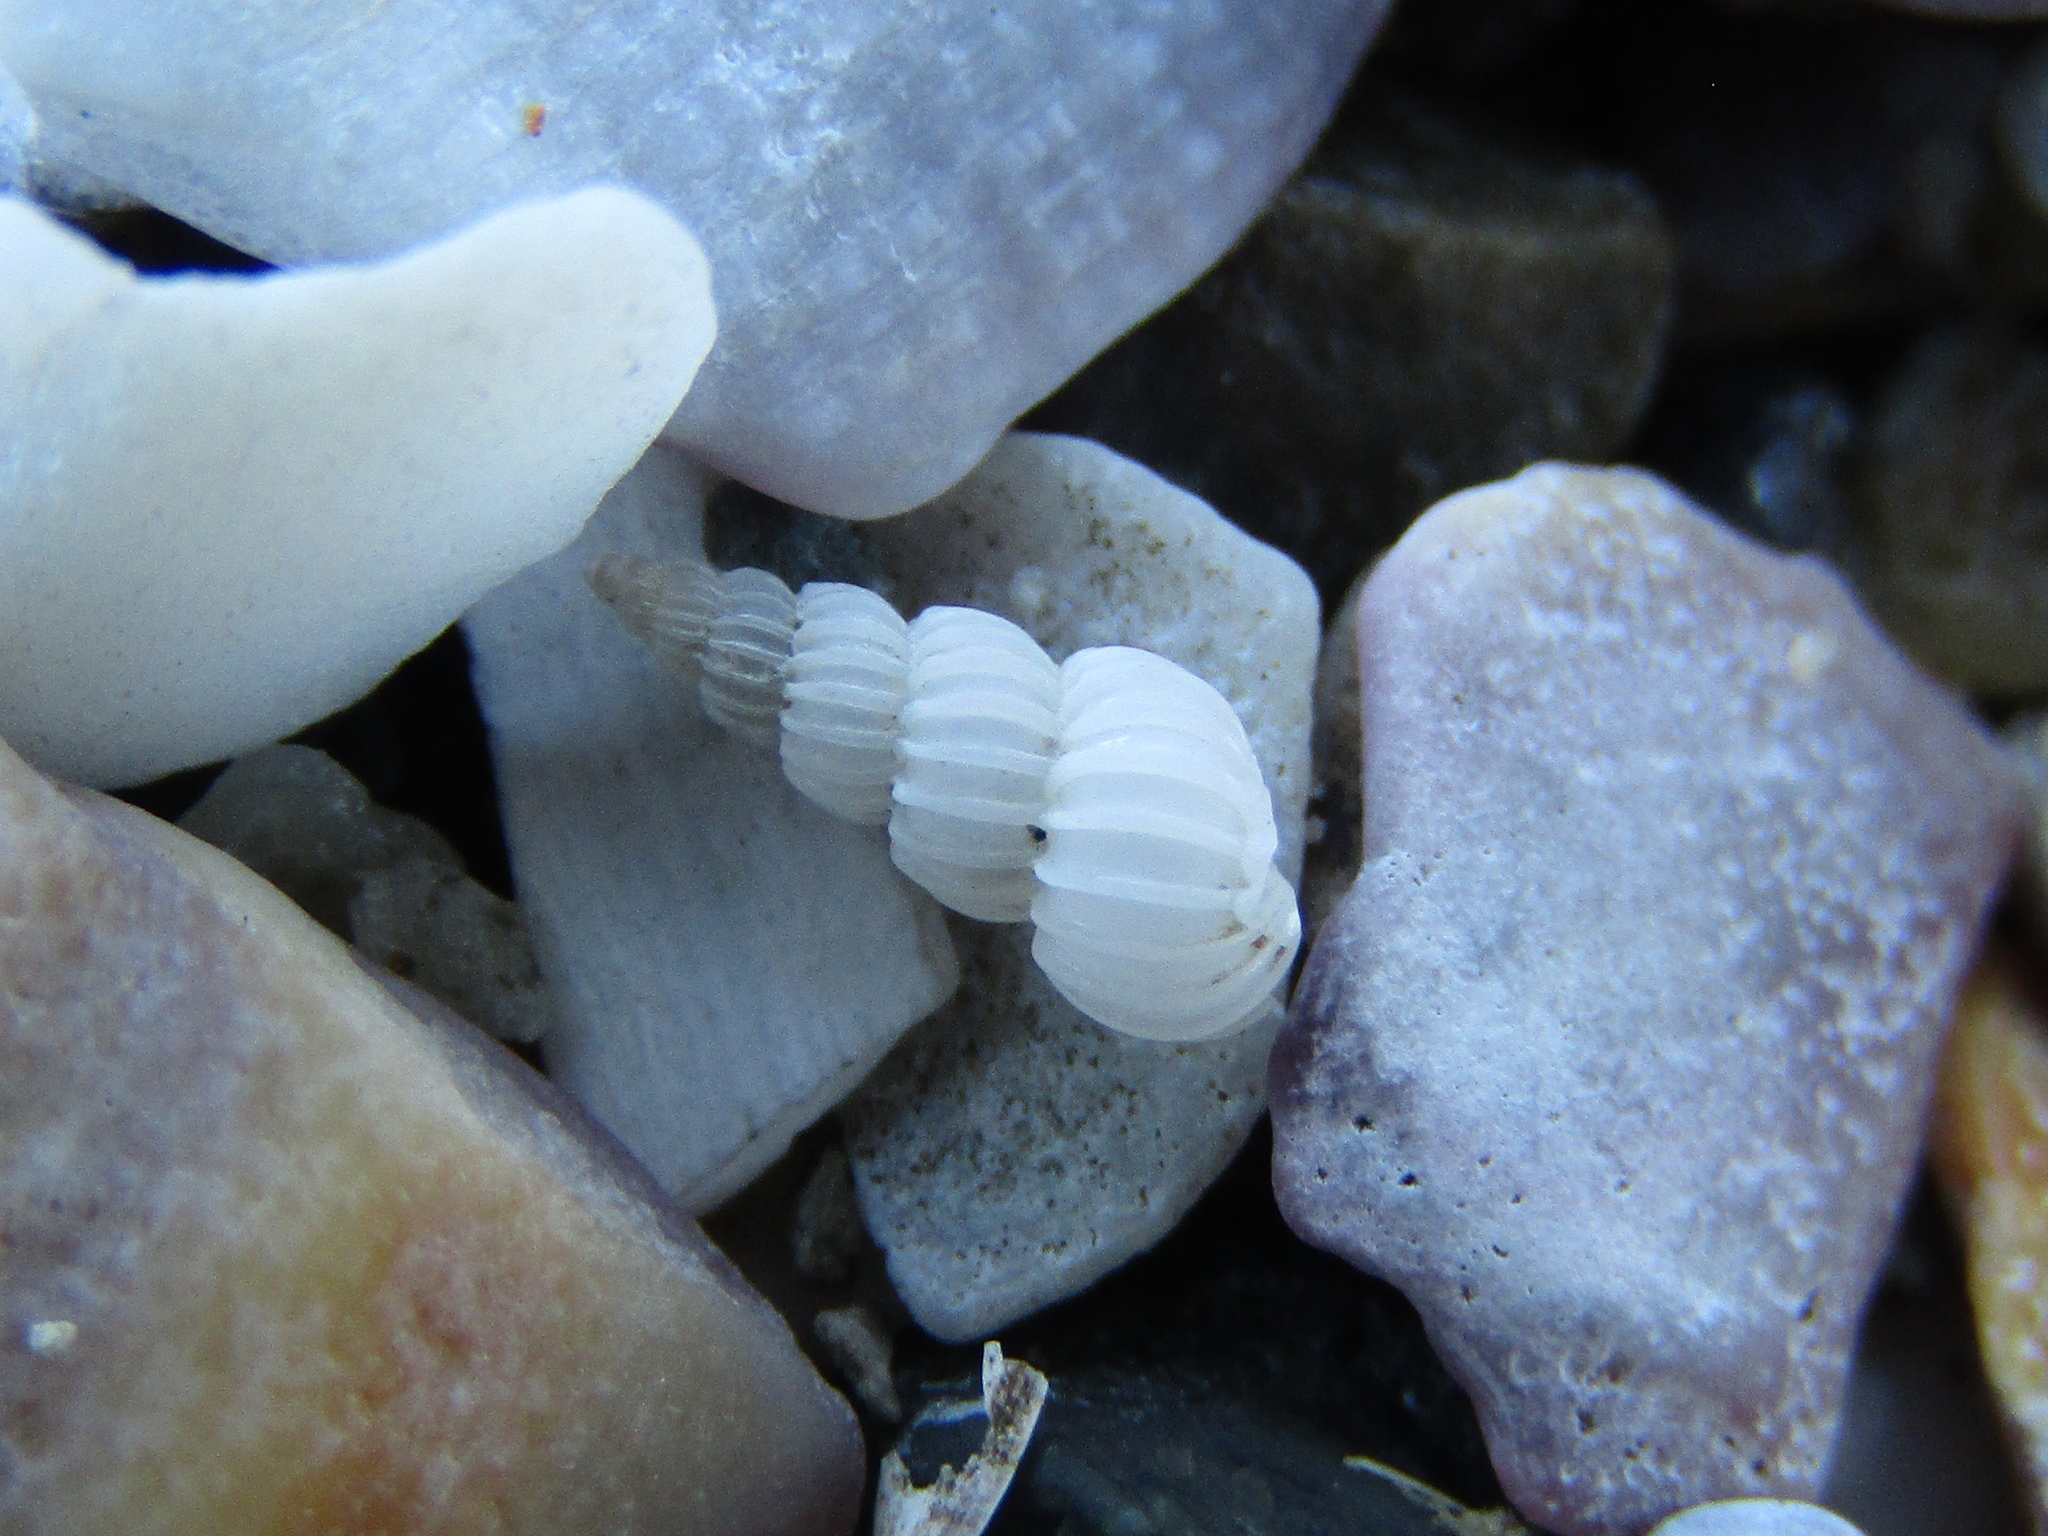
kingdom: Animalia
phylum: Mollusca
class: Gastropoda
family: Epitoniidae
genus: Epitonium
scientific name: Epitonium jukesianum
